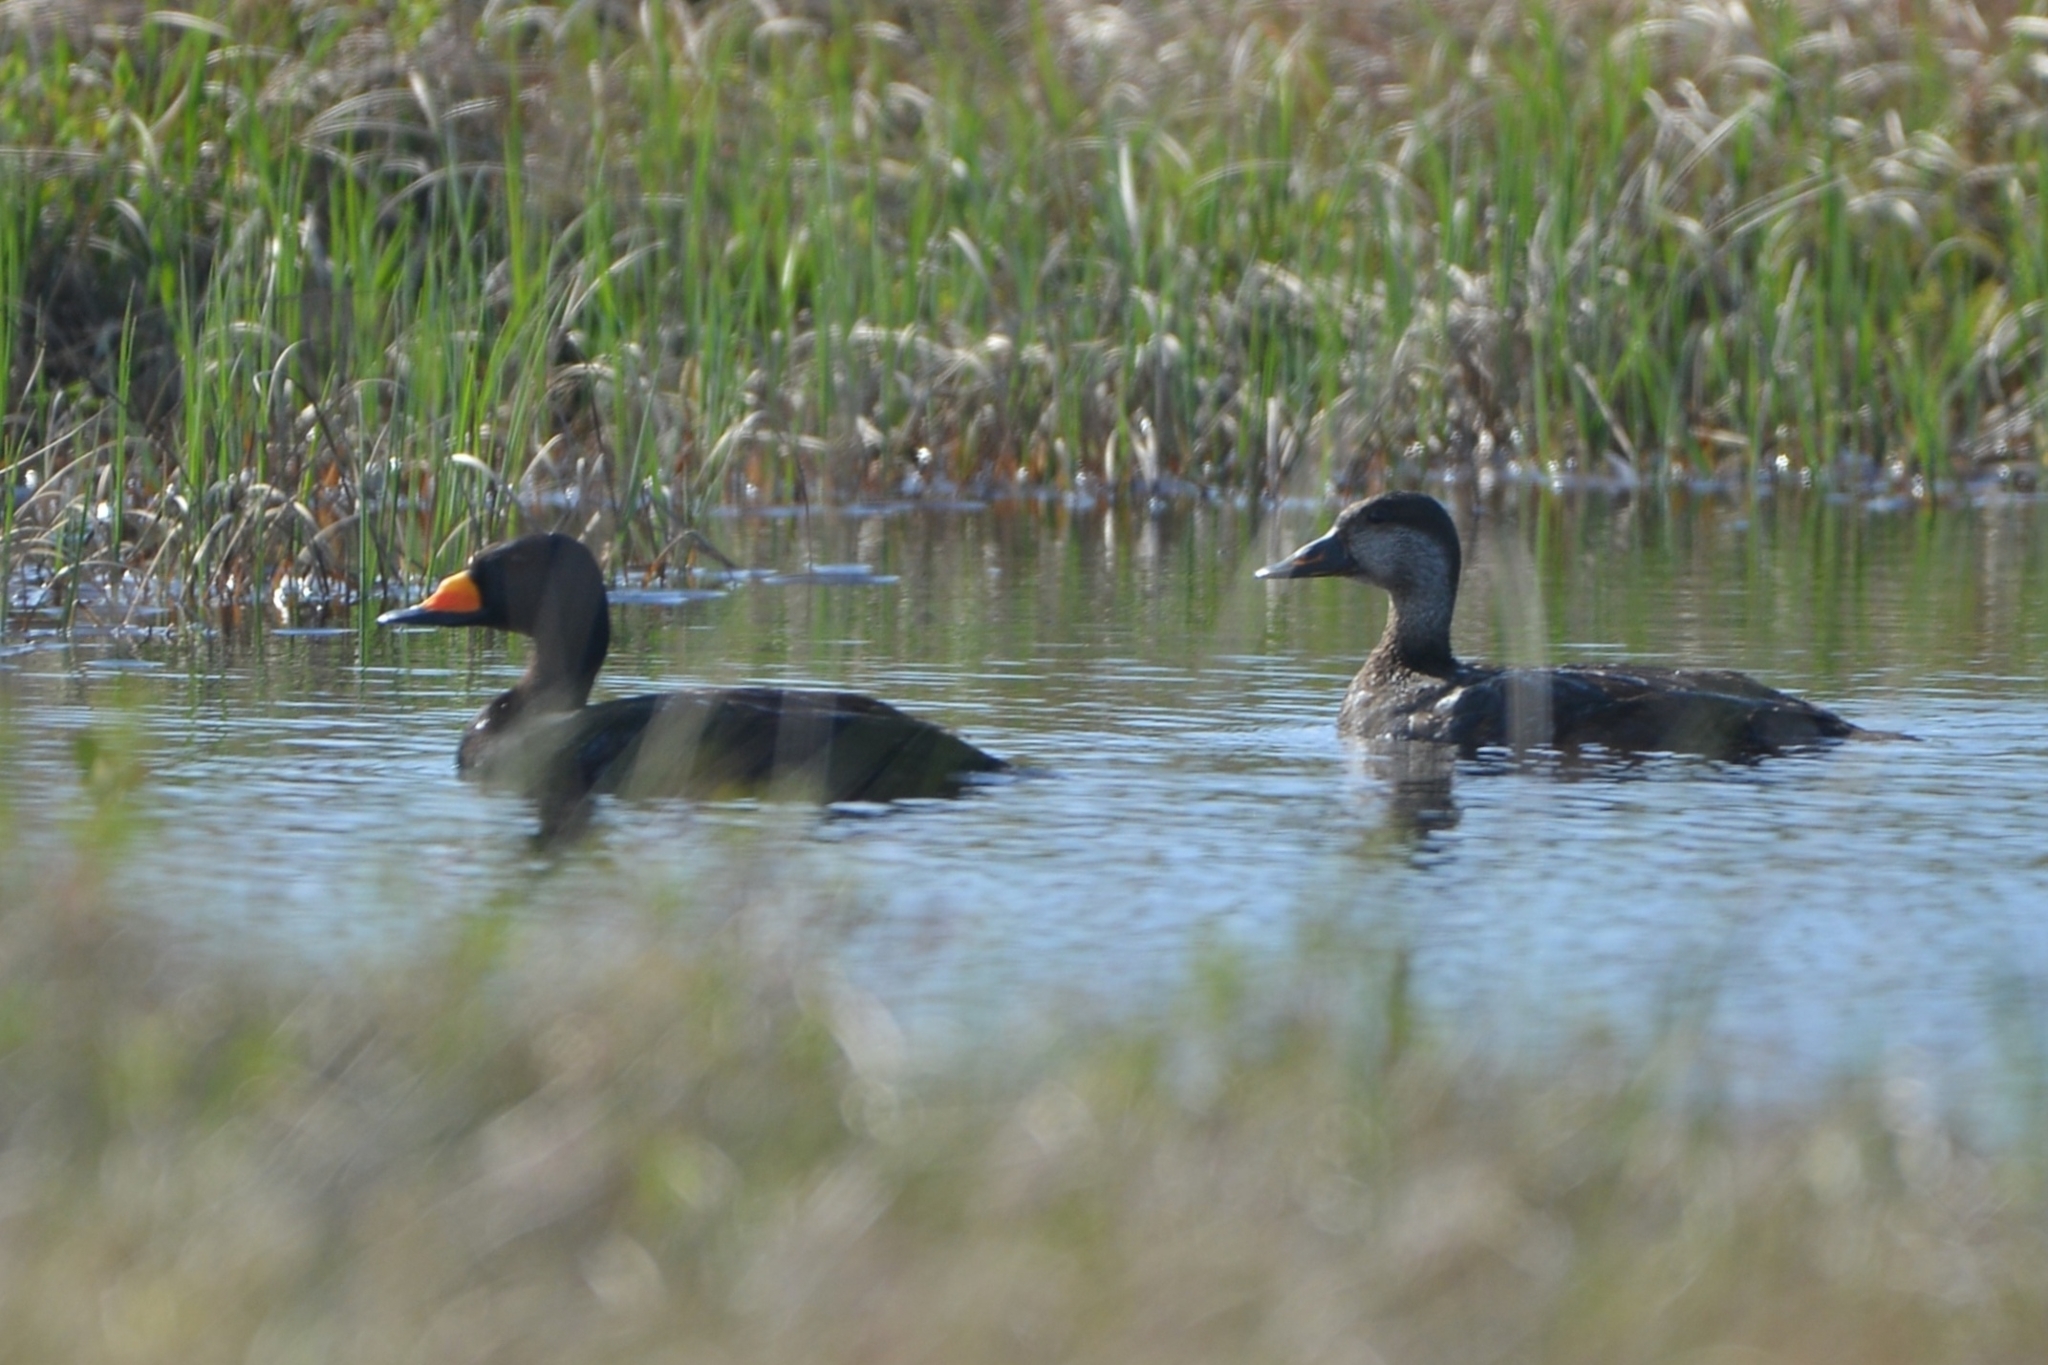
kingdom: Animalia
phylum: Chordata
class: Aves
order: Anseriformes
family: Anatidae
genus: Melanitta
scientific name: Melanitta americana
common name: Black scoter
